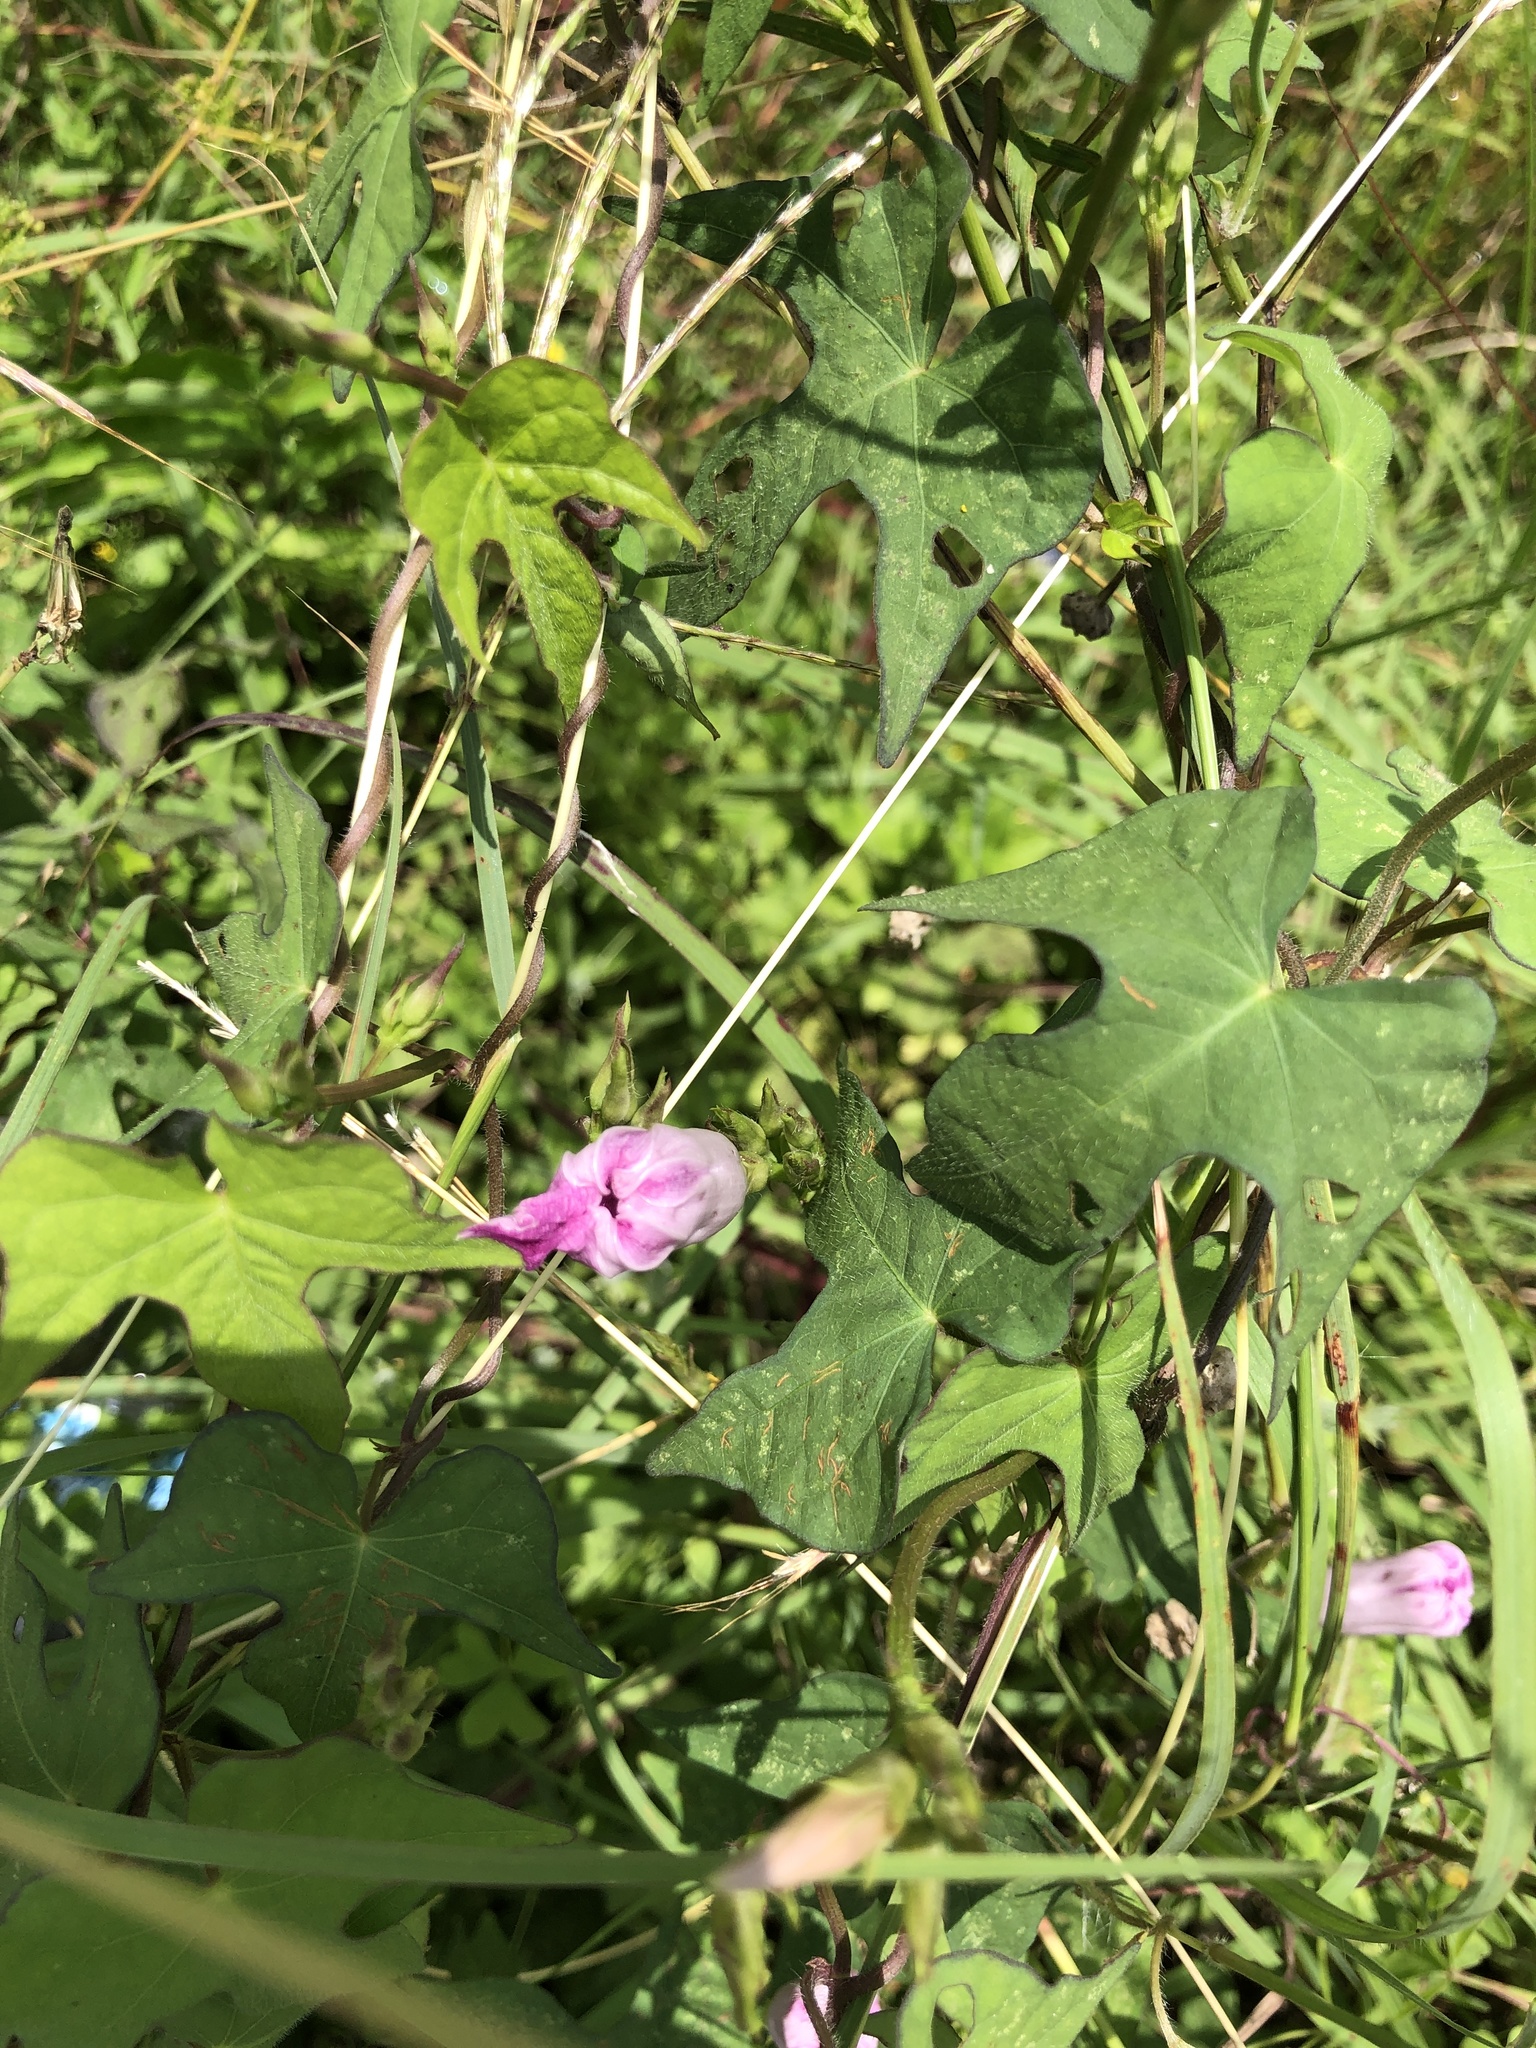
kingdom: Plantae
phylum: Tracheophyta
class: Magnoliopsida
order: Solanales
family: Convolvulaceae
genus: Ipomoea
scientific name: Ipomoea cordatotriloba
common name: Cotton morning glory
